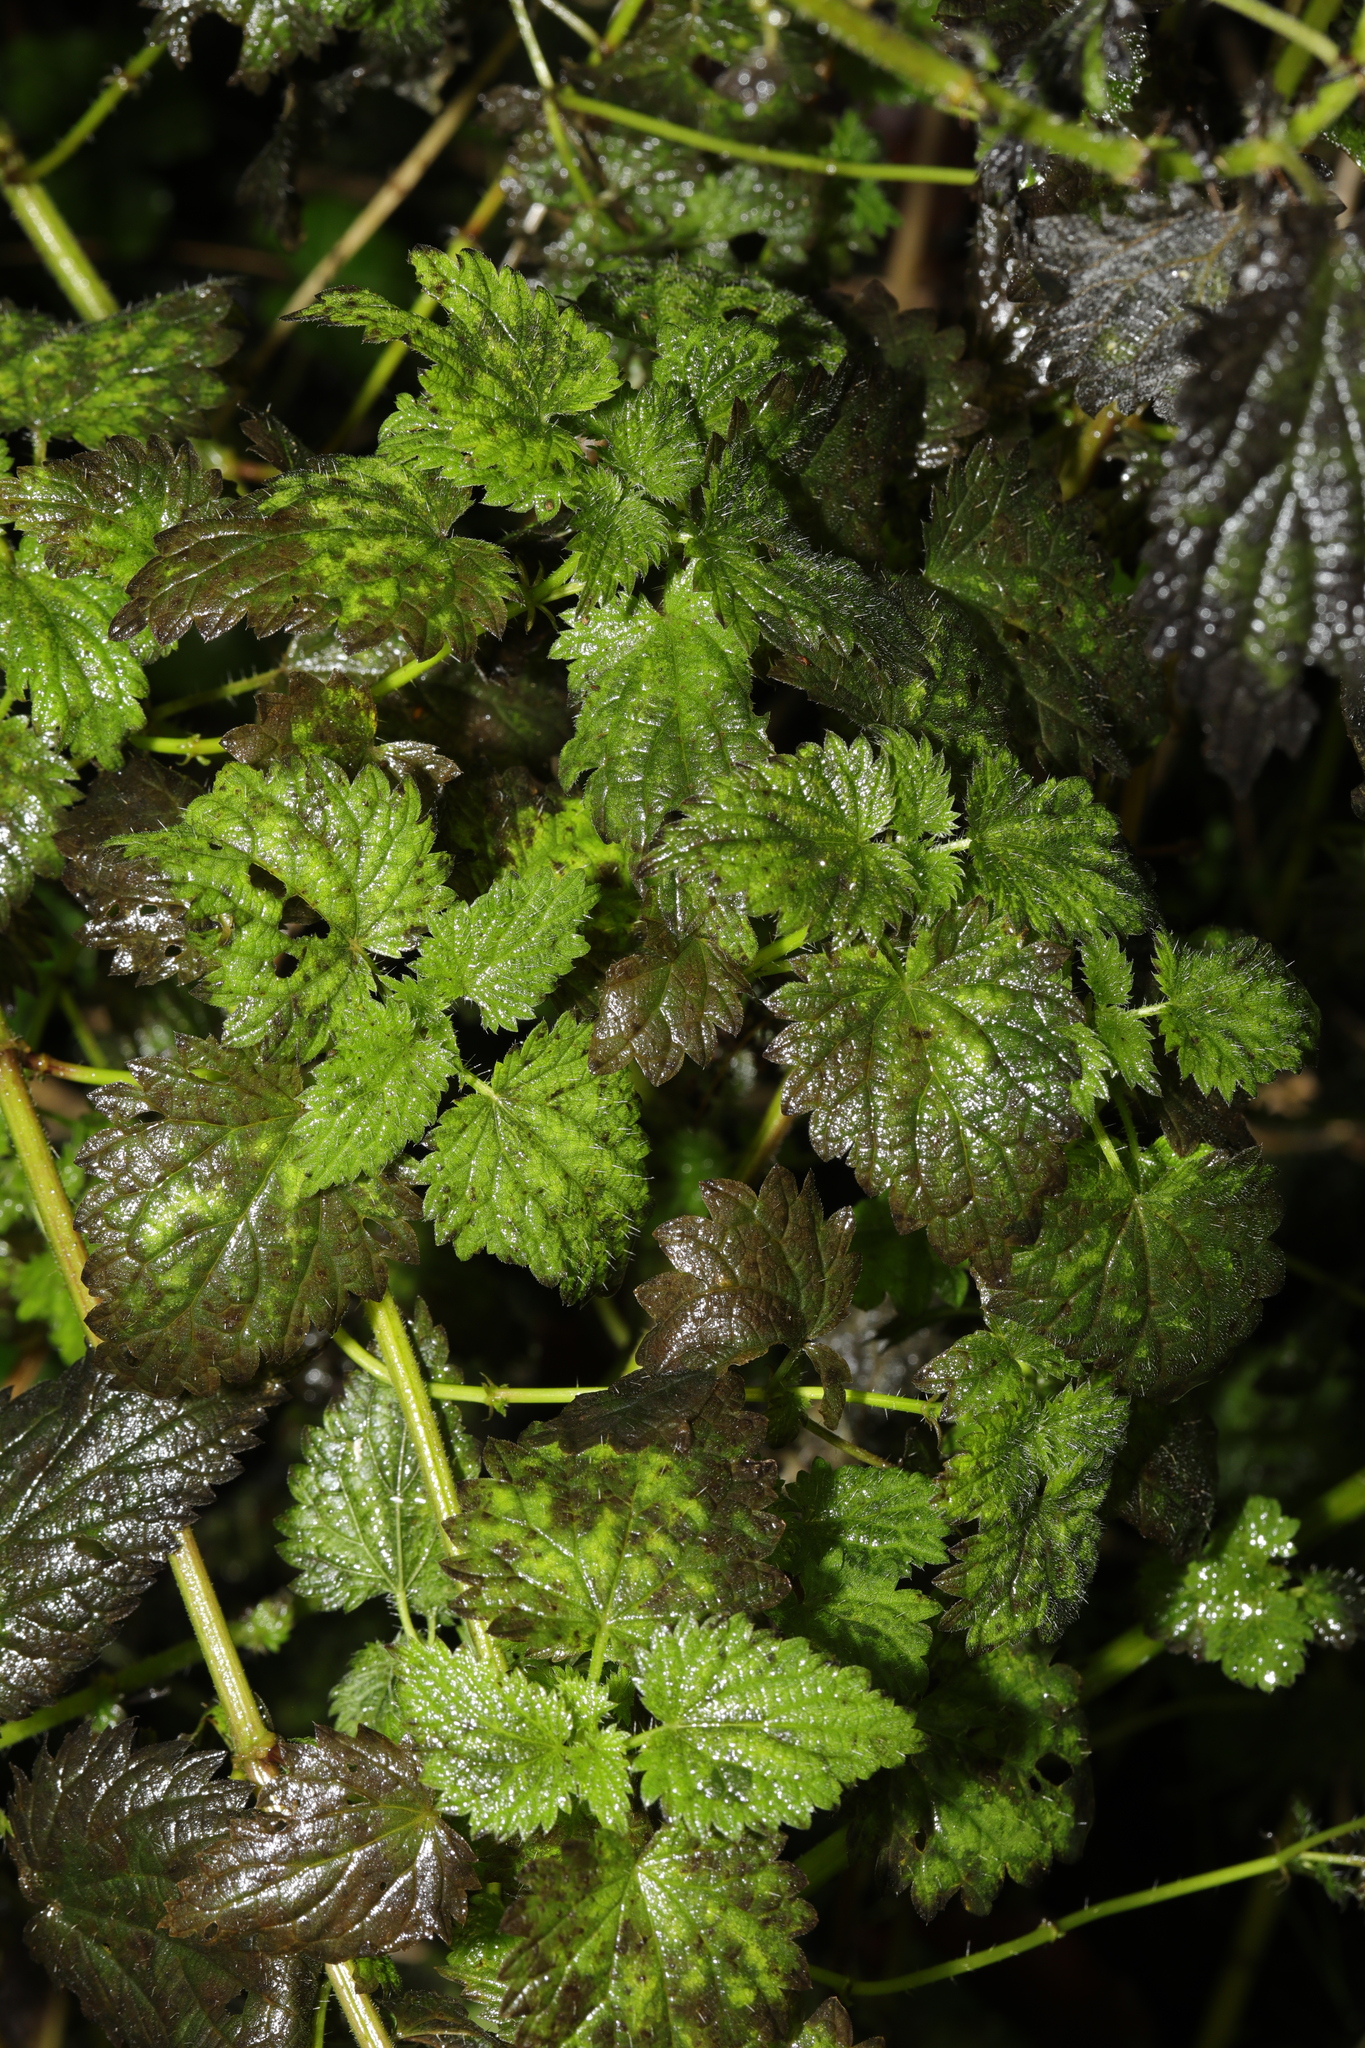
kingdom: Plantae
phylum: Tracheophyta
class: Magnoliopsida
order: Rosales
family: Urticaceae
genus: Urtica
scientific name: Urtica dioica
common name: Common nettle
